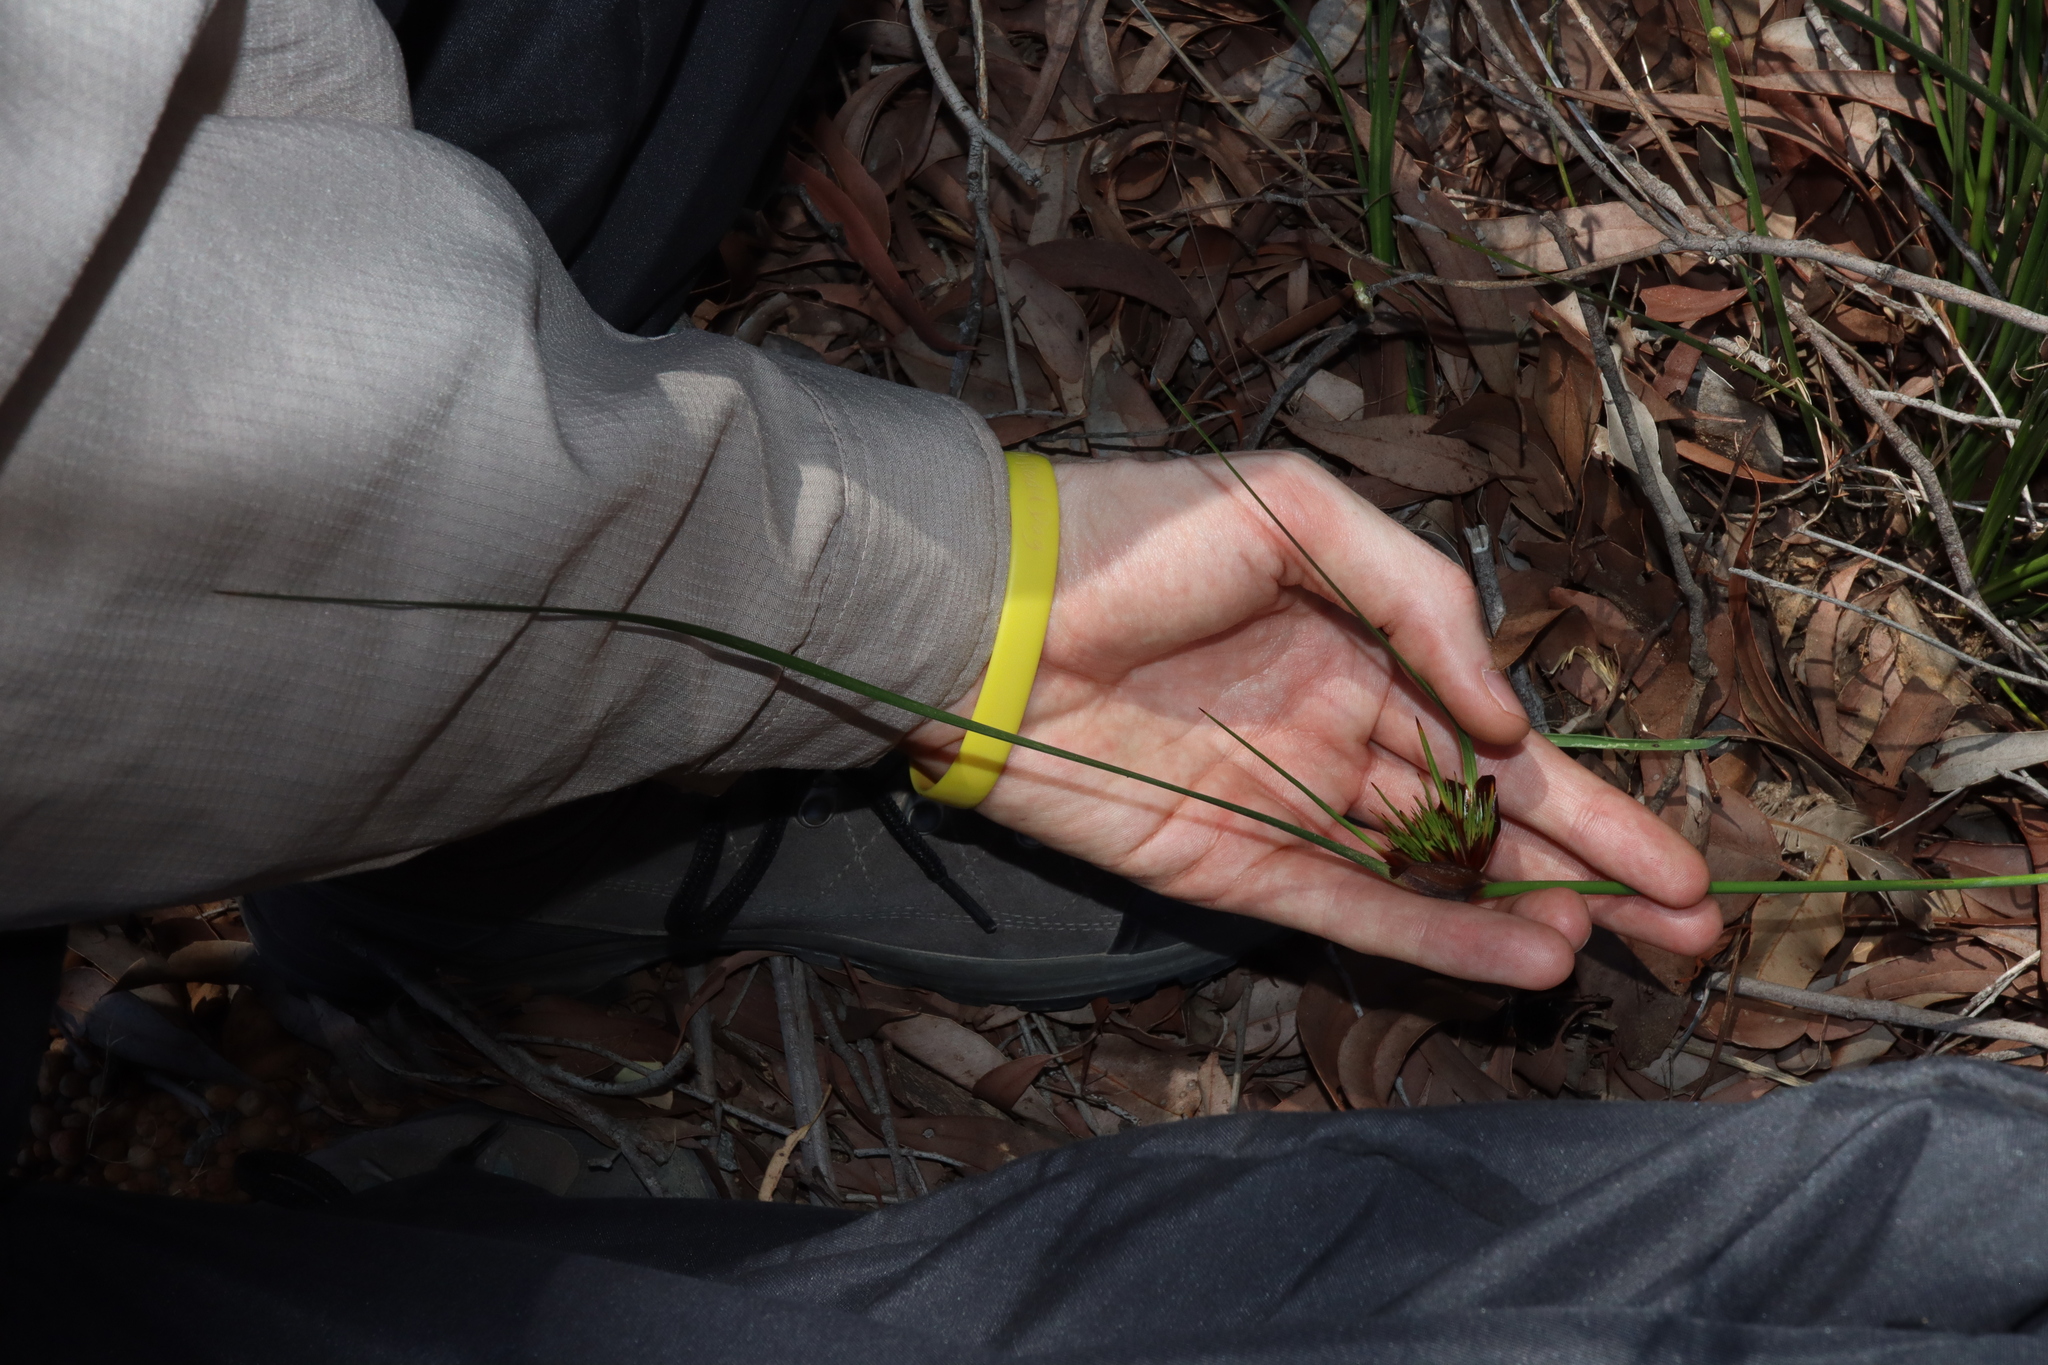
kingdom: Plantae
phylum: Tracheophyta
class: Liliopsida
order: Poales
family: Cyperaceae
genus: Mesomelaena
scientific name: Mesomelaena tetragona
